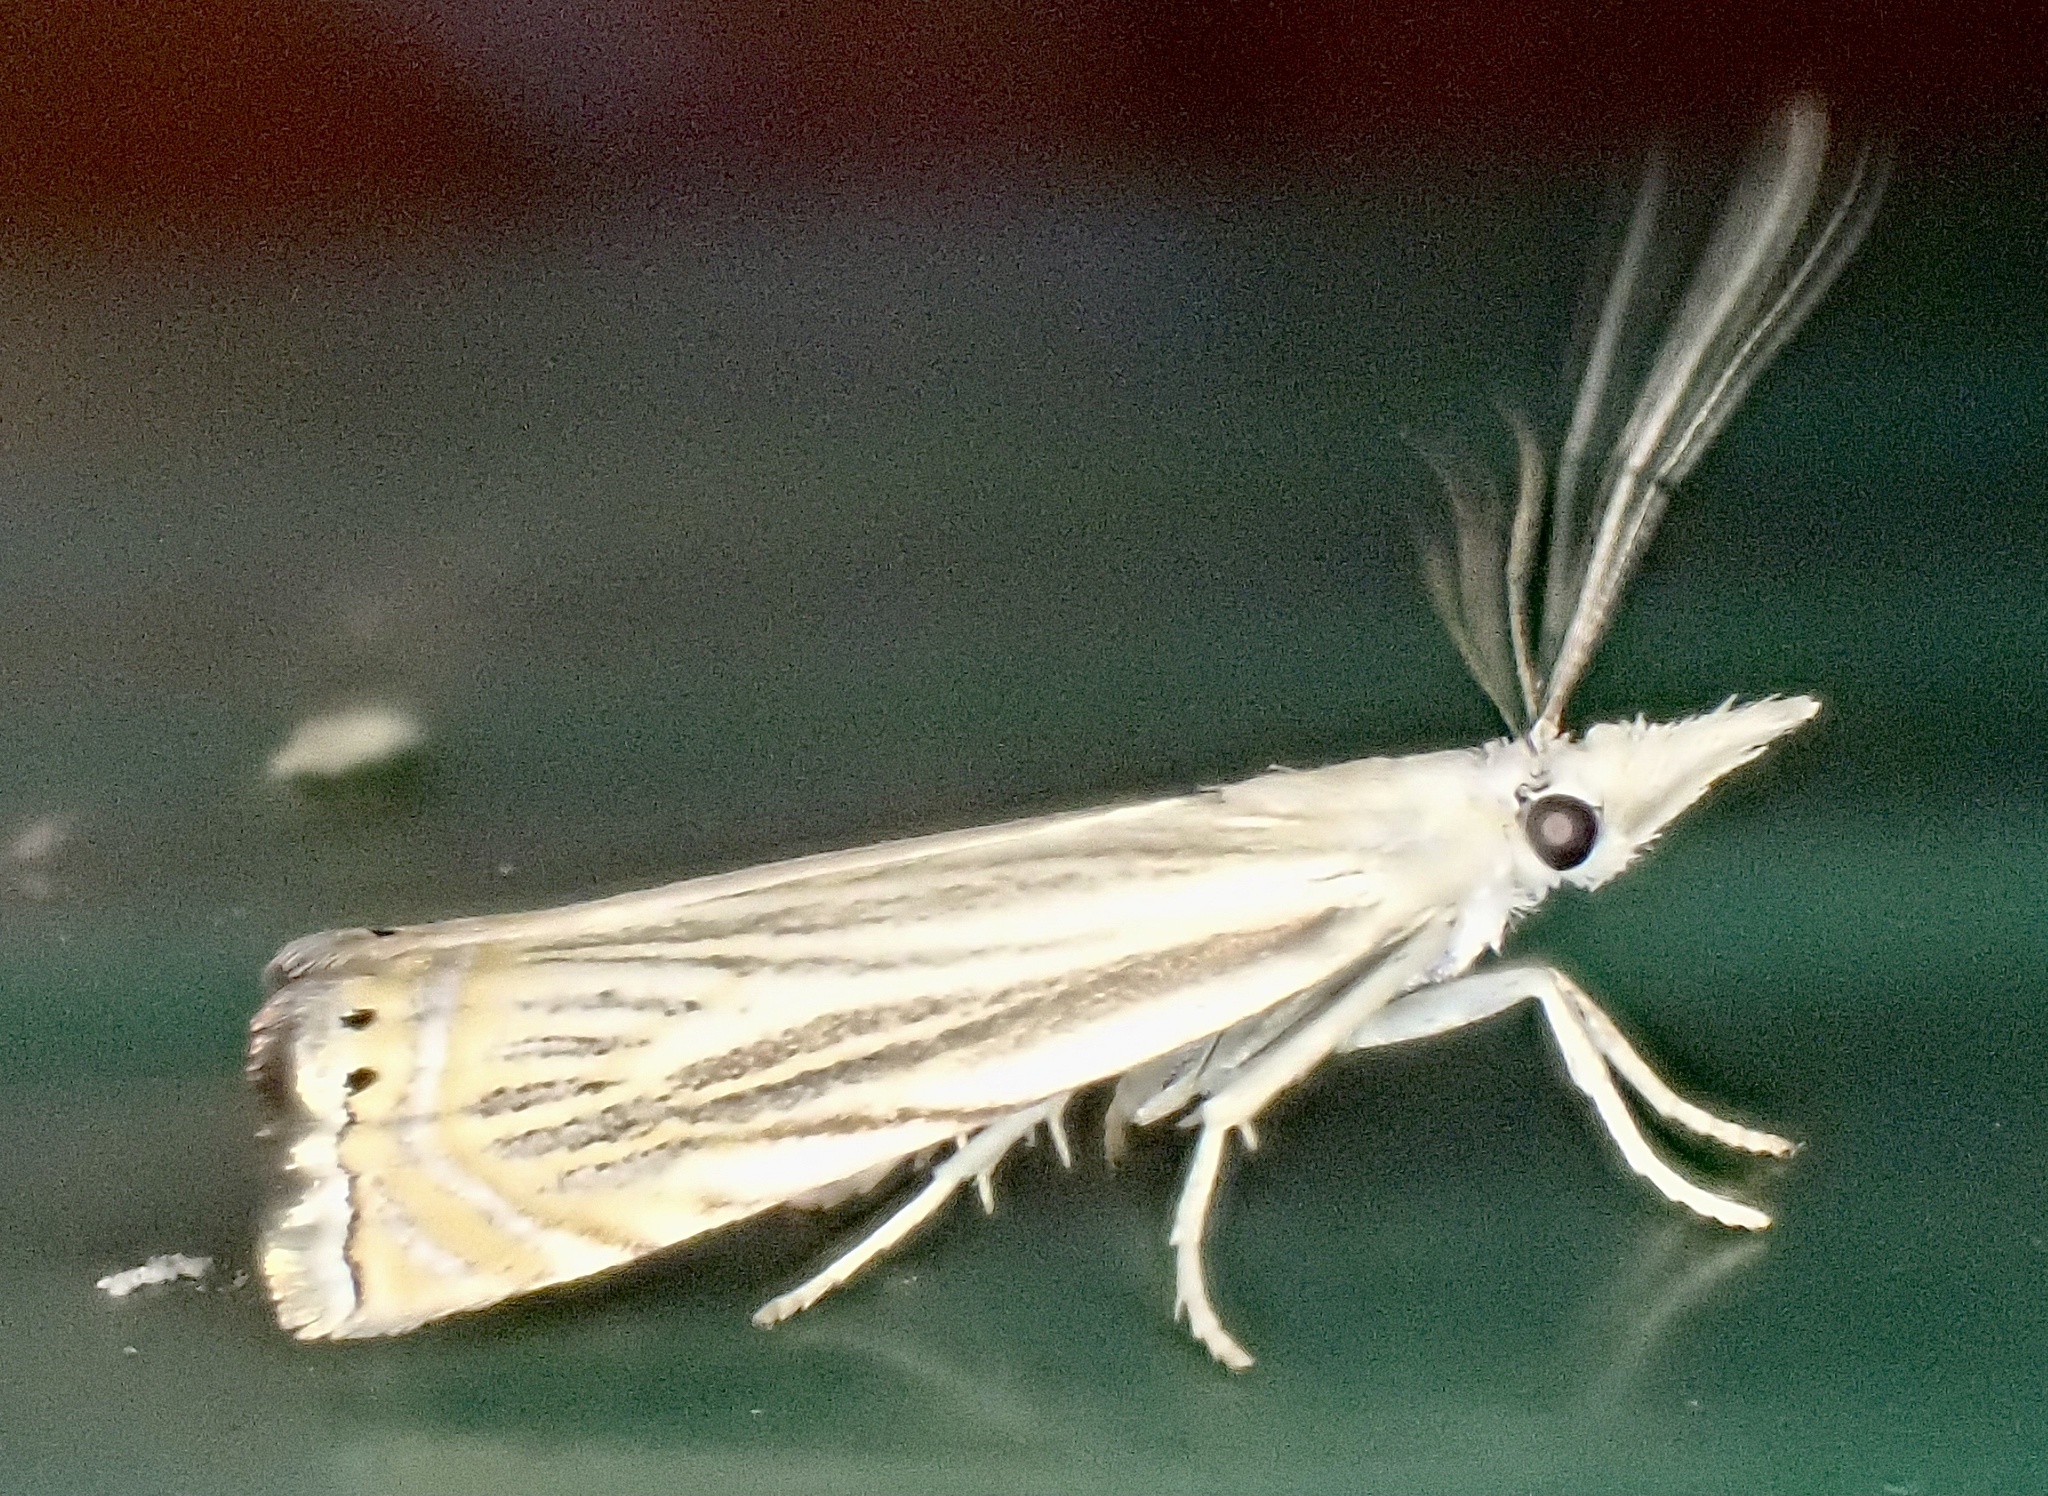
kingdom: Animalia
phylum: Arthropoda
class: Insecta
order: Lepidoptera
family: Crambidae
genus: Chrysoteuchia
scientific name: Chrysoteuchia topiarius
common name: Topiary grass-veneer
